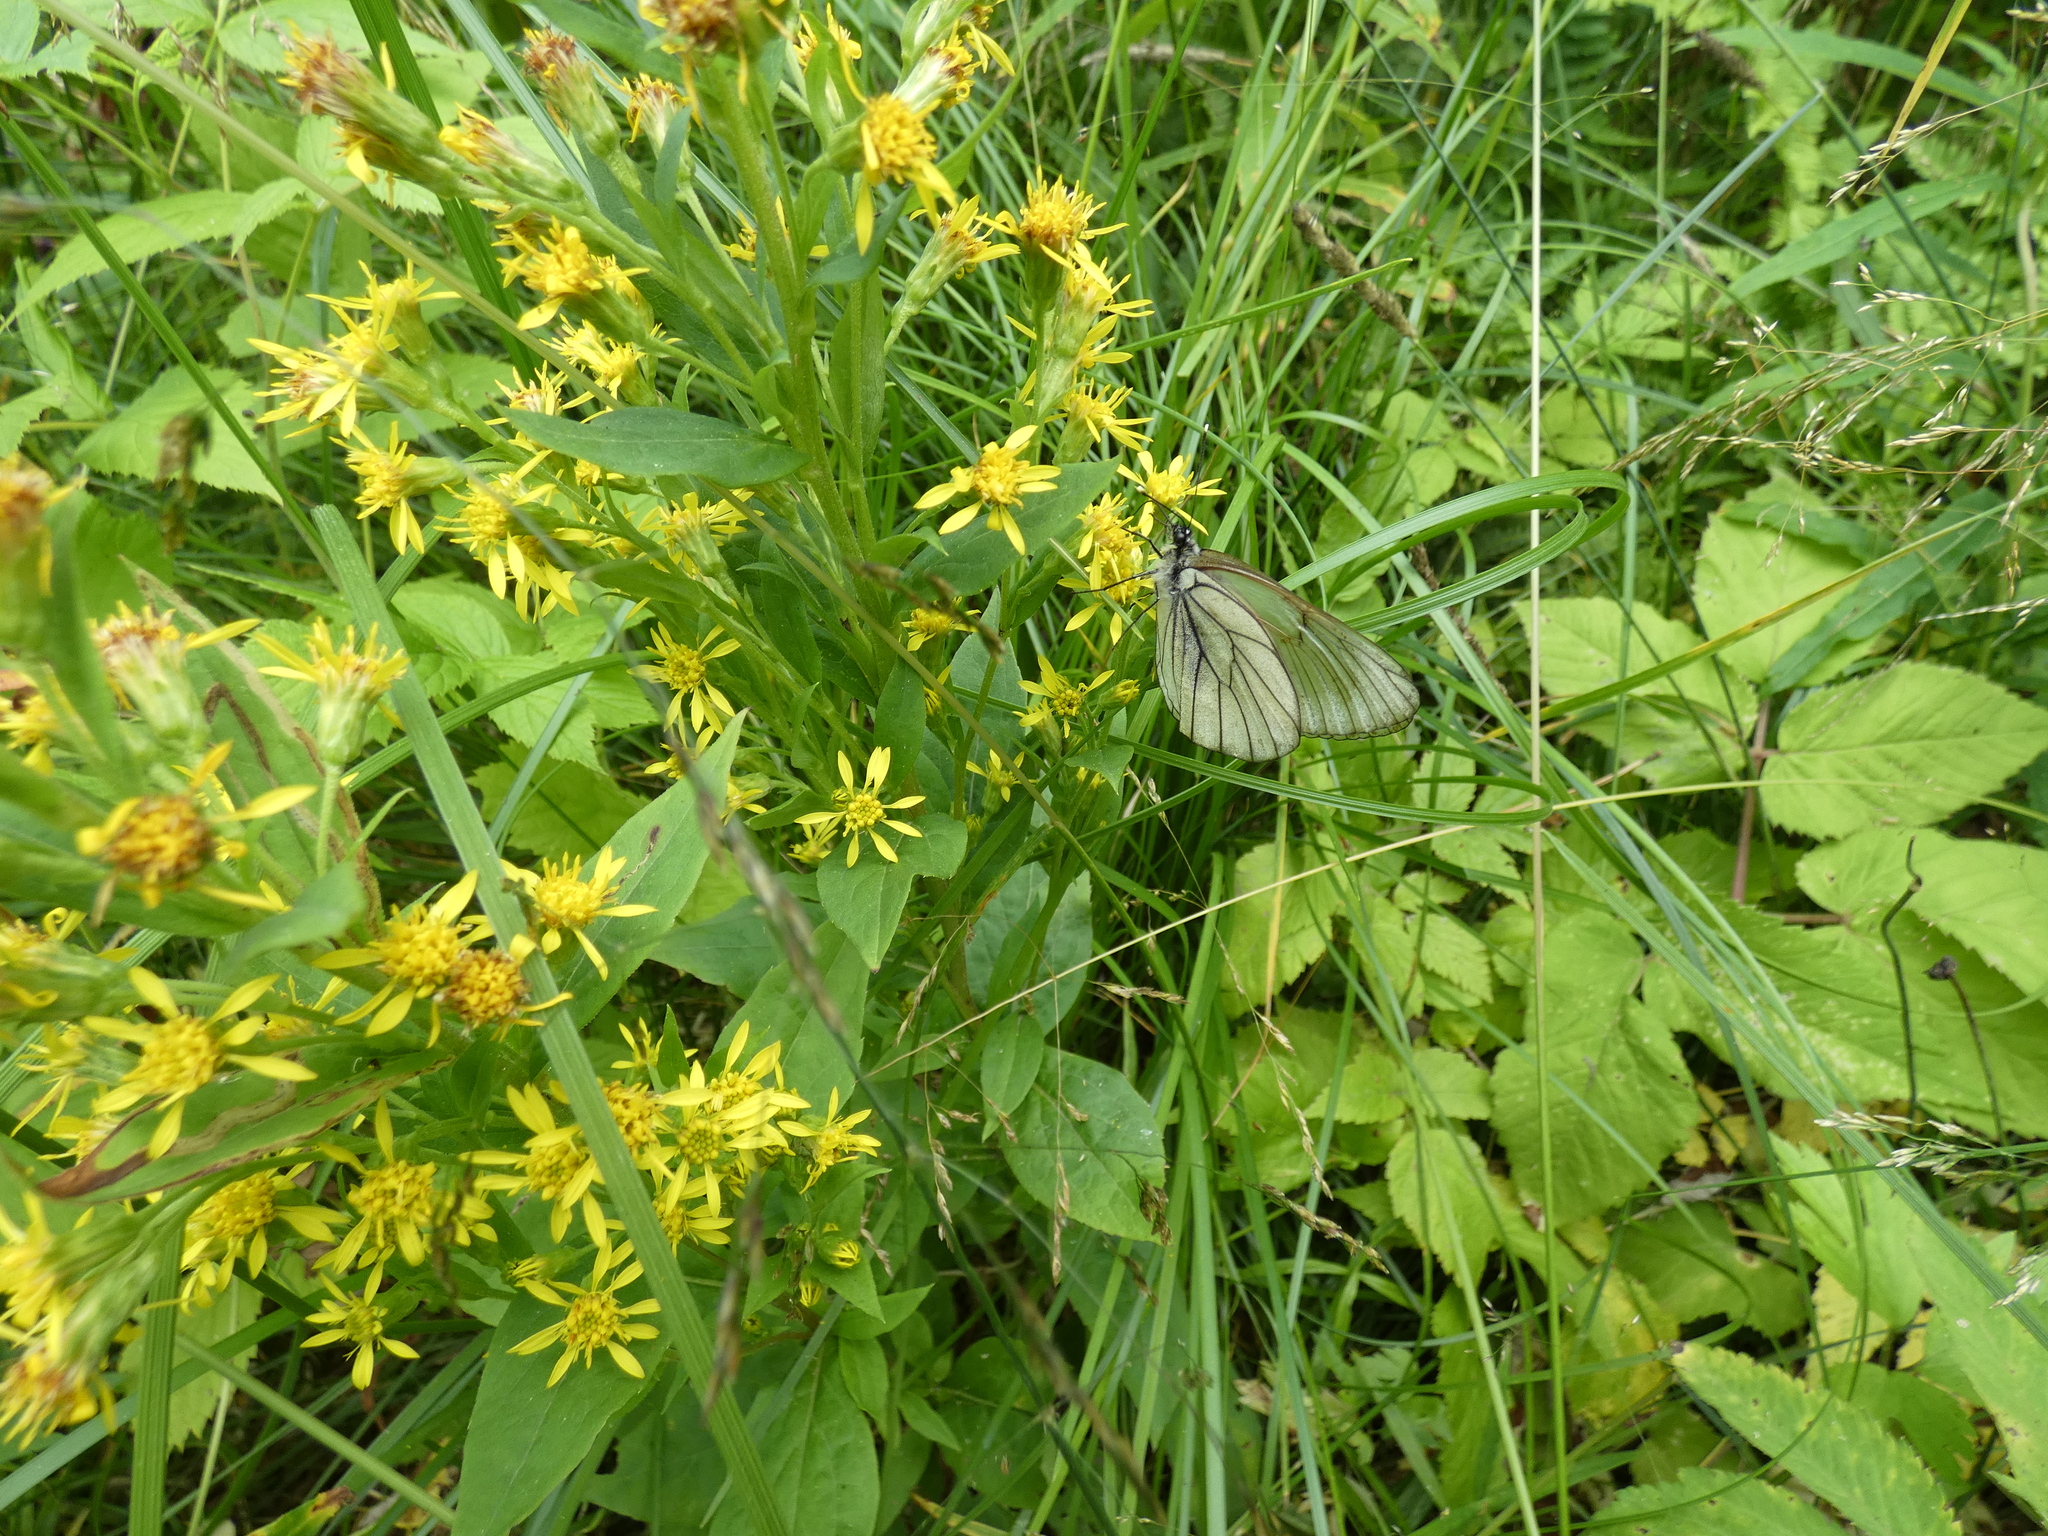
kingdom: Animalia
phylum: Arthropoda
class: Insecta
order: Lepidoptera
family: Pieridae
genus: Aporia
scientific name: Aporia crataegi
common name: Black-veined white
